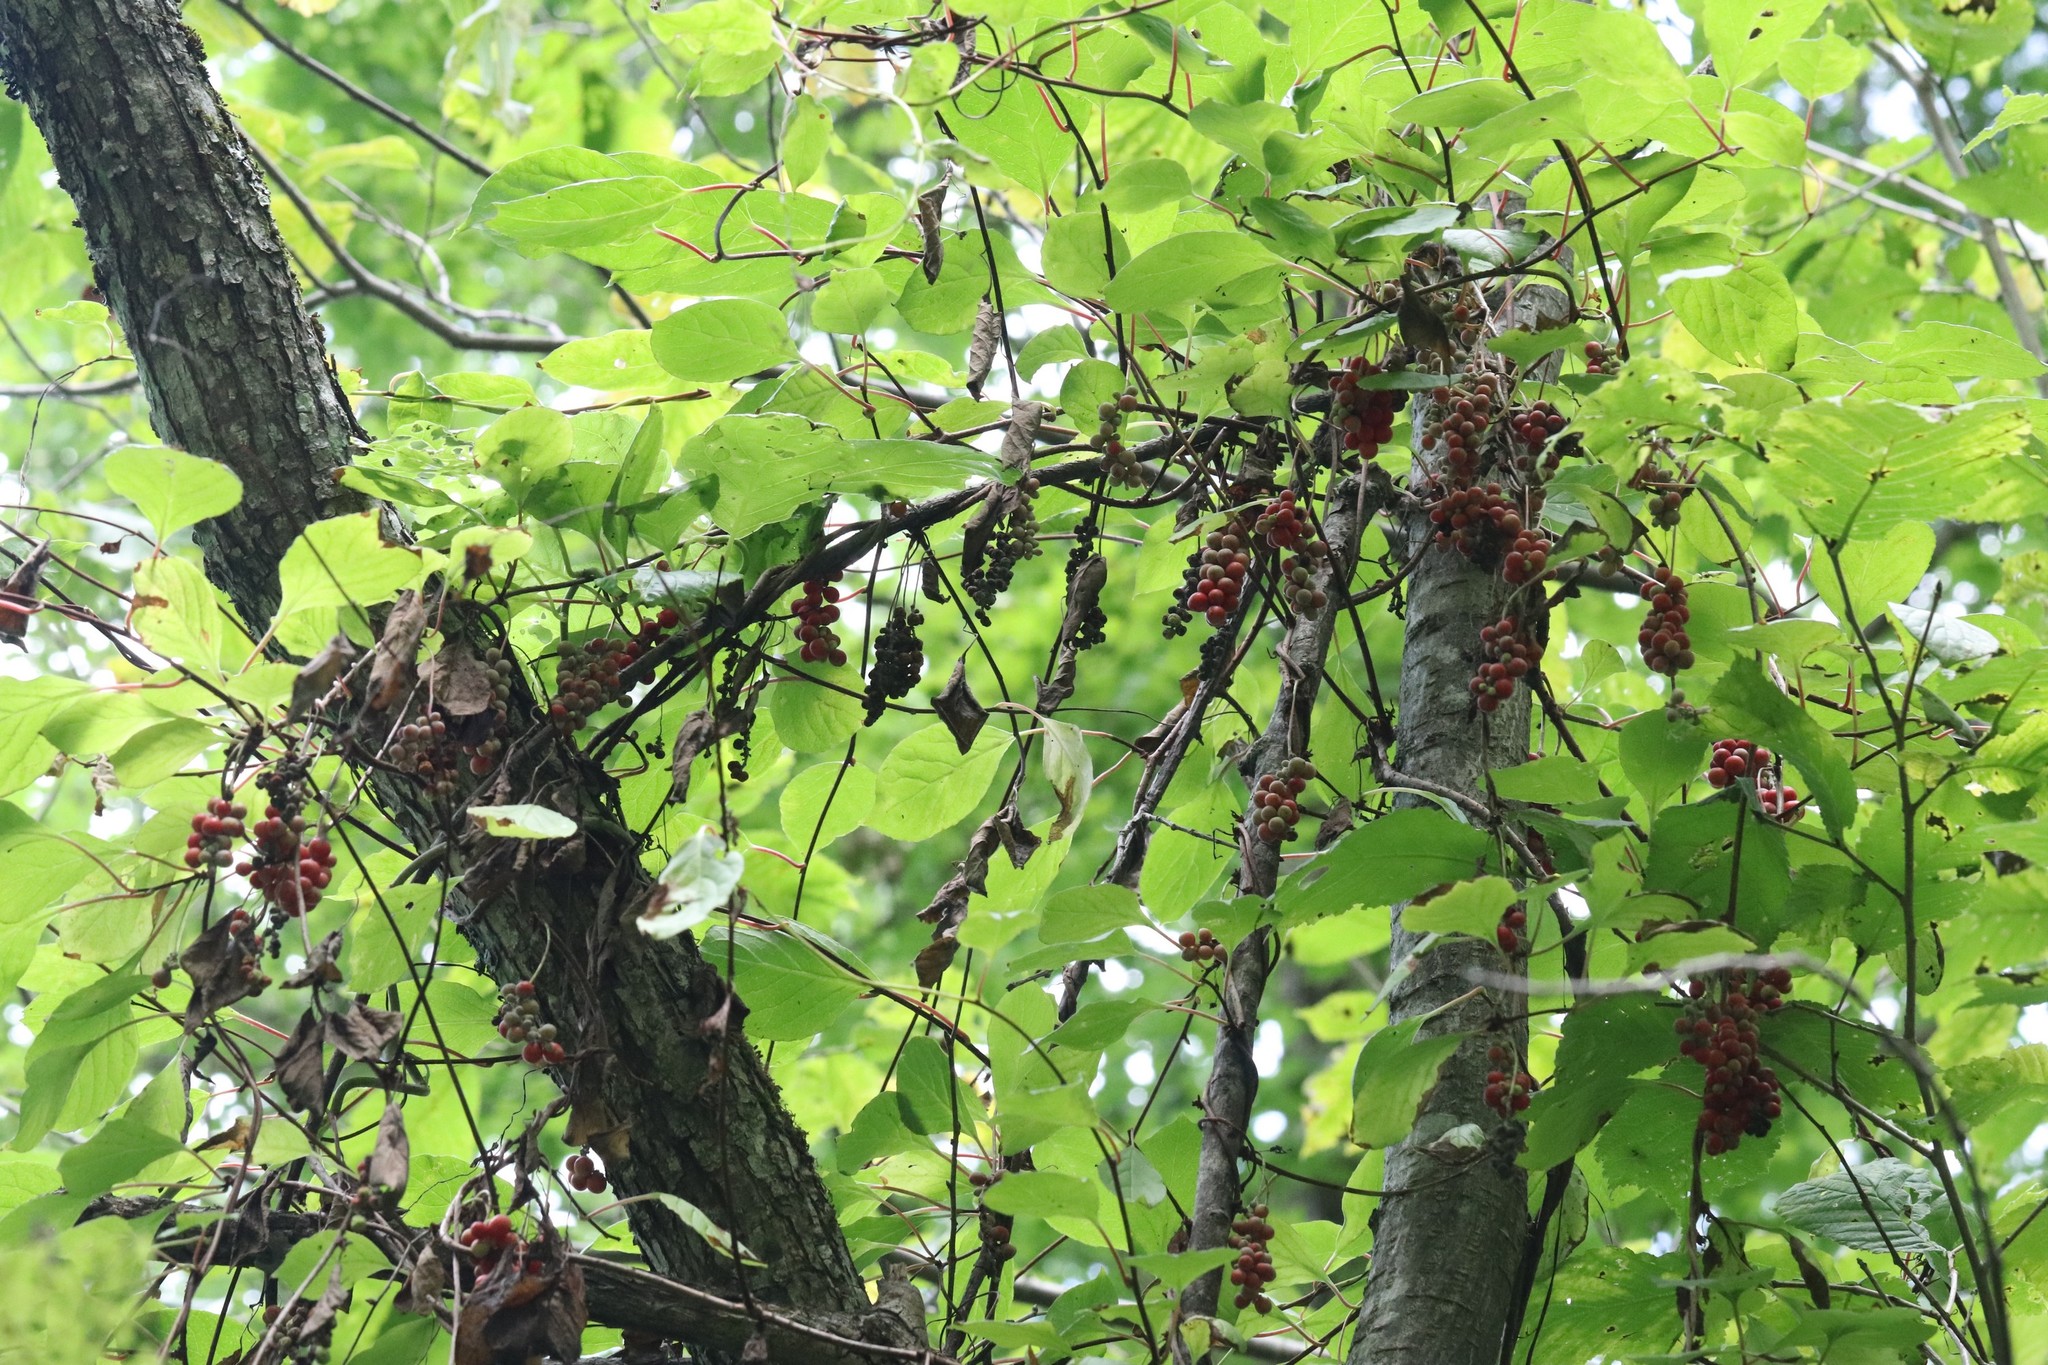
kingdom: Plantae
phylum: Tracheophyta
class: Magnoliopsida
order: Austrobaileyales
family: Schisandraceae
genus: Schisandra
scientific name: Schisandra chinensis
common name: Magnolia-vine
